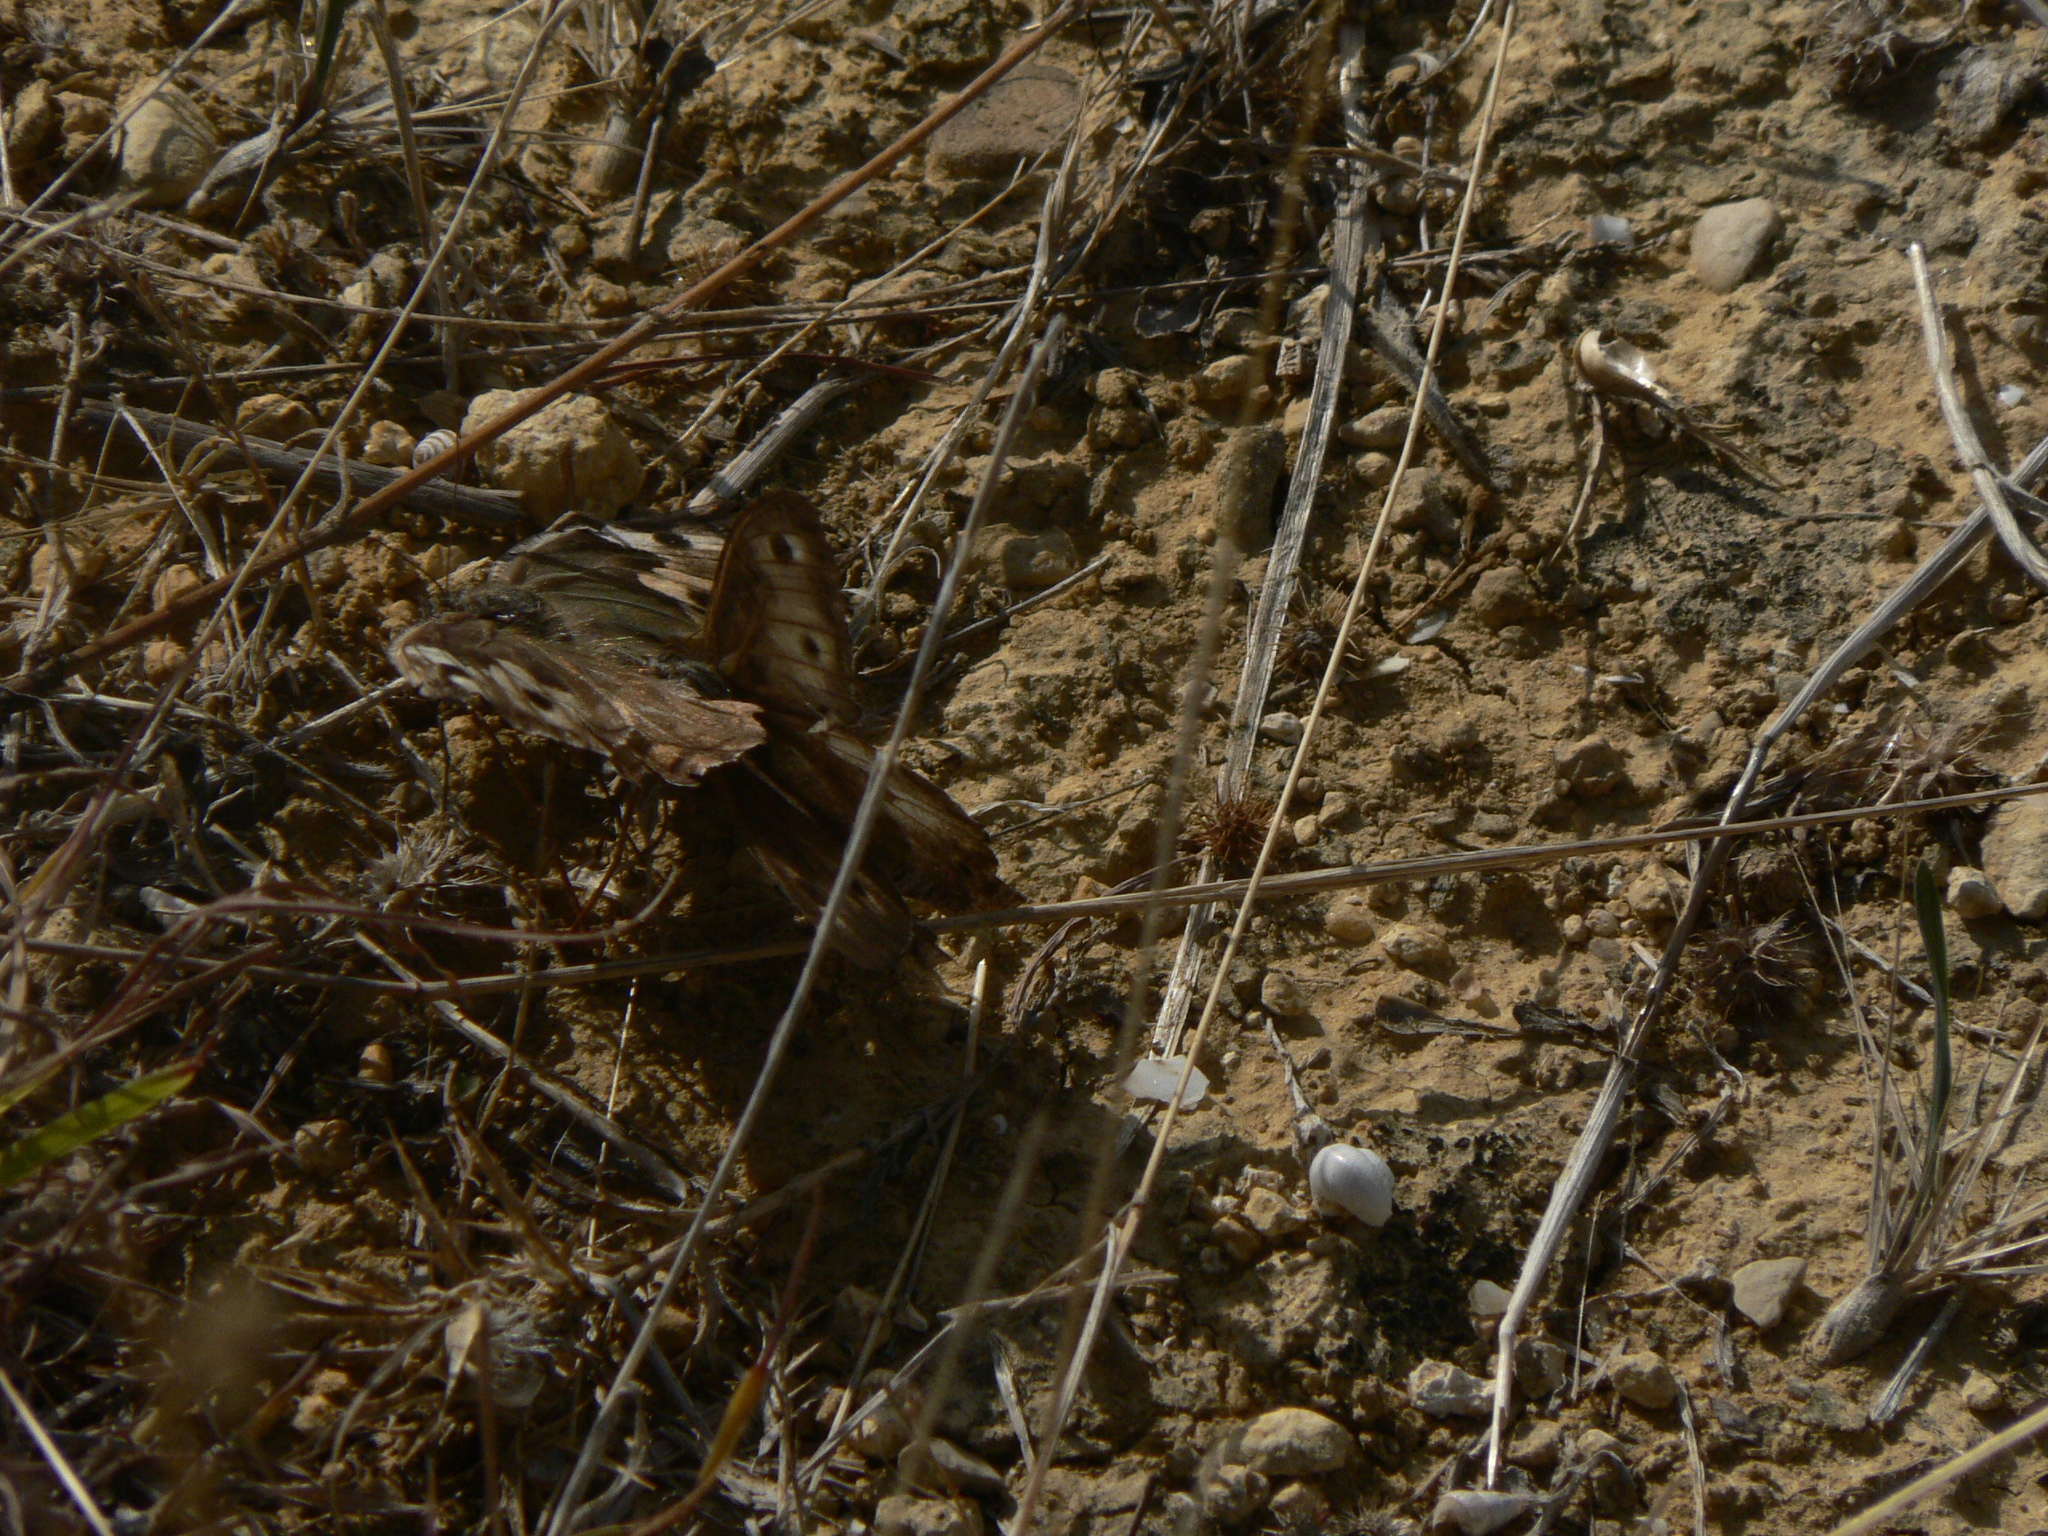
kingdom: Animalia
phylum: Arthropoda
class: Insecta
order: Lepidoptera
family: Nymphalidae
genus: Hipparchia
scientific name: Hipparchia semele
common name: Grayling
